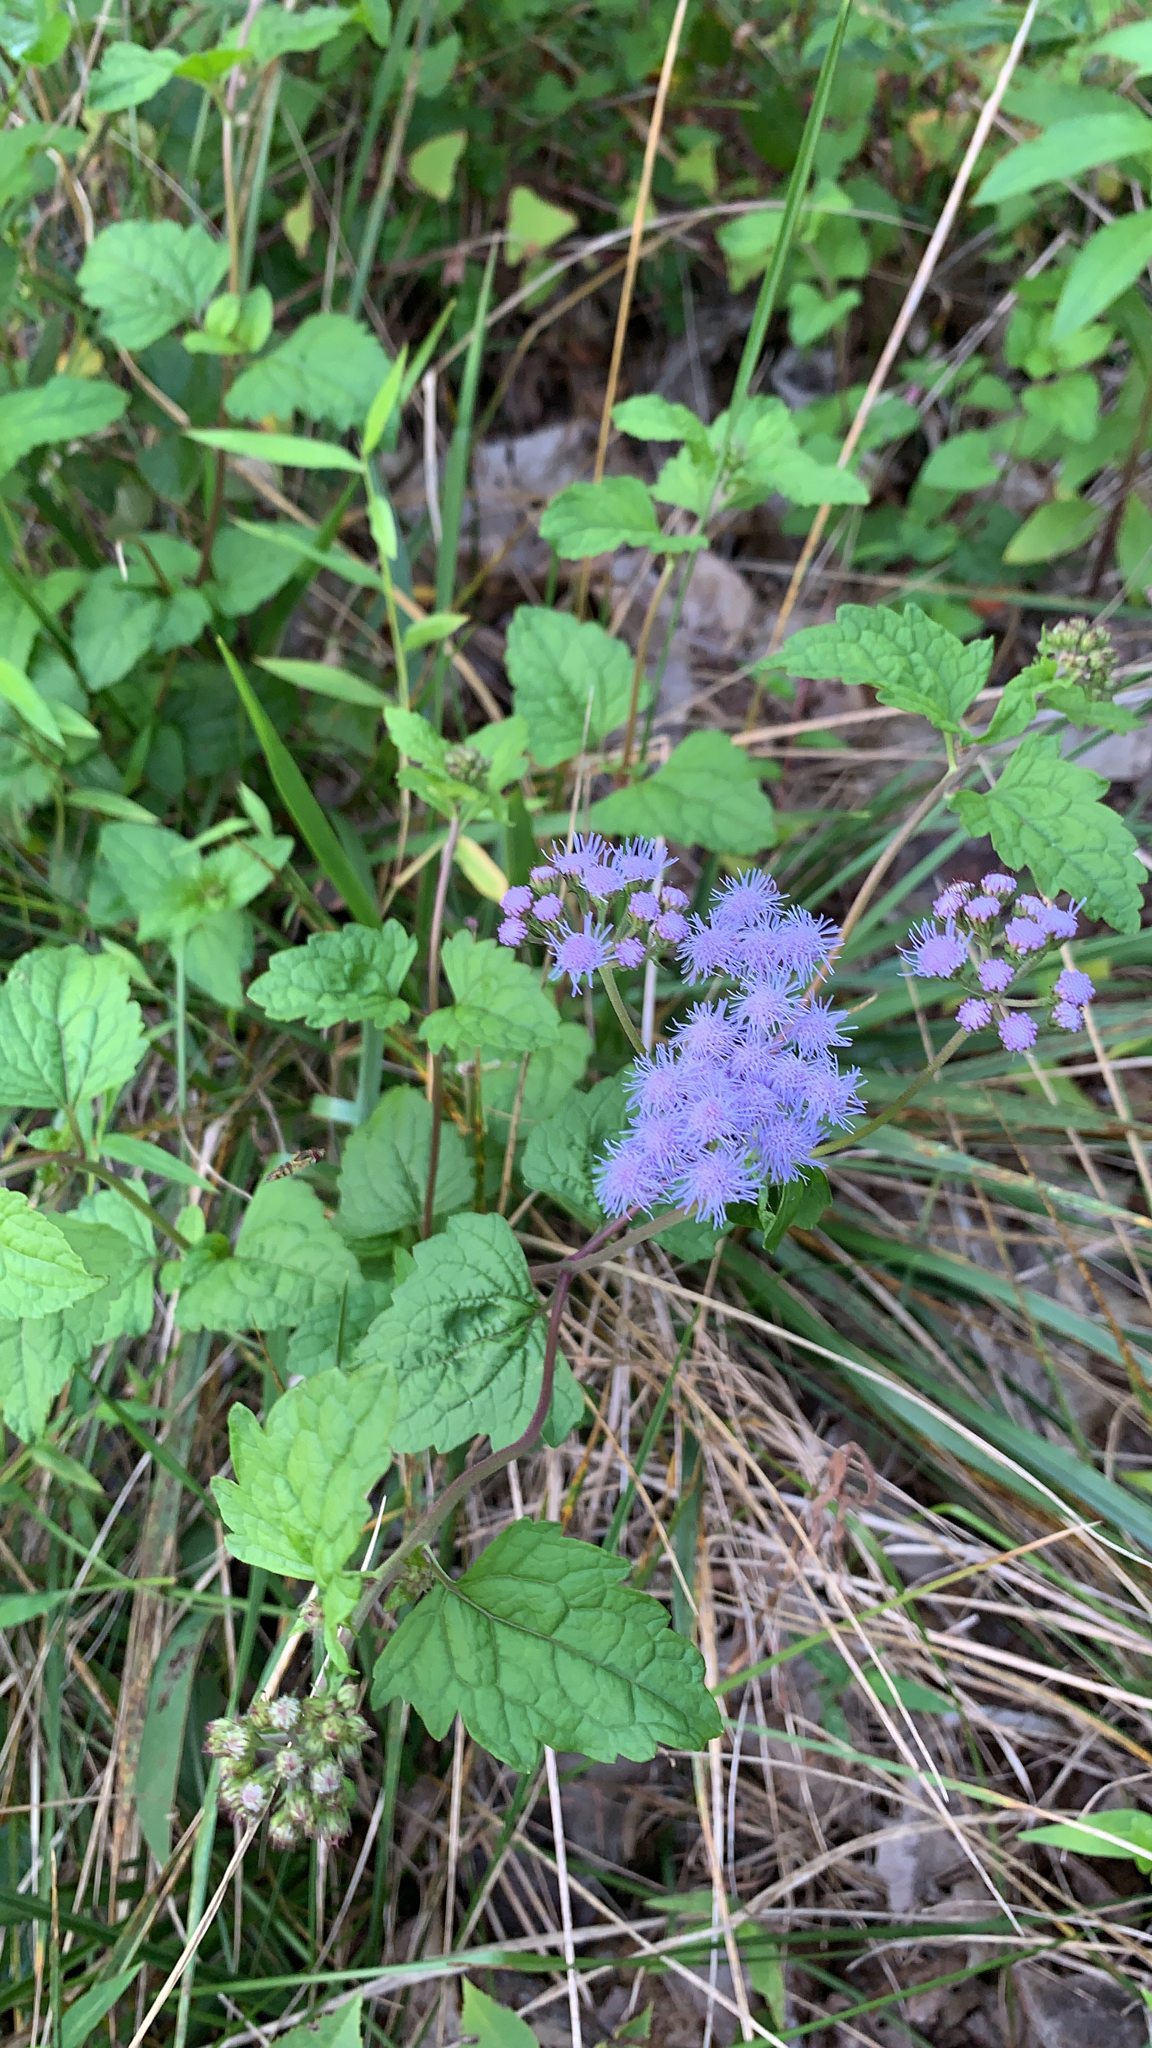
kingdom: Plantae
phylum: Tracheophyta
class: Magnoliopsida
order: Asterales
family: Asteraceae
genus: Conoclinium
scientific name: Conoclinium coelestinum
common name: Blue mistflower
